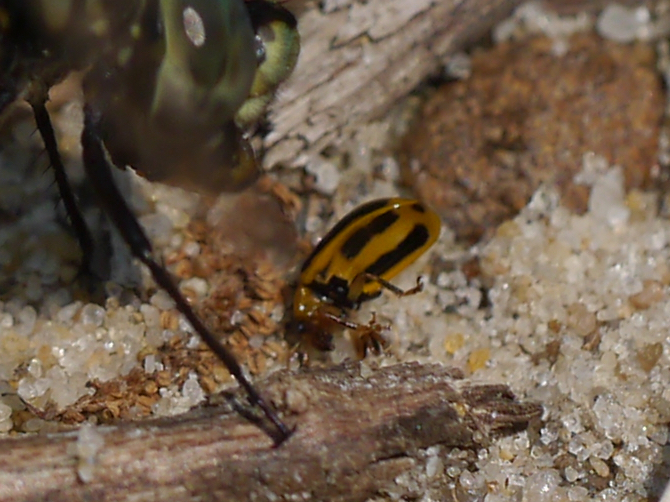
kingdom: Animalia
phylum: Arthropoda
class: Insecta
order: Coleoptera
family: Chrysomelidae
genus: Cerotoma
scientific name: Cerotoma trifurcata
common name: Bean leaf beetle
